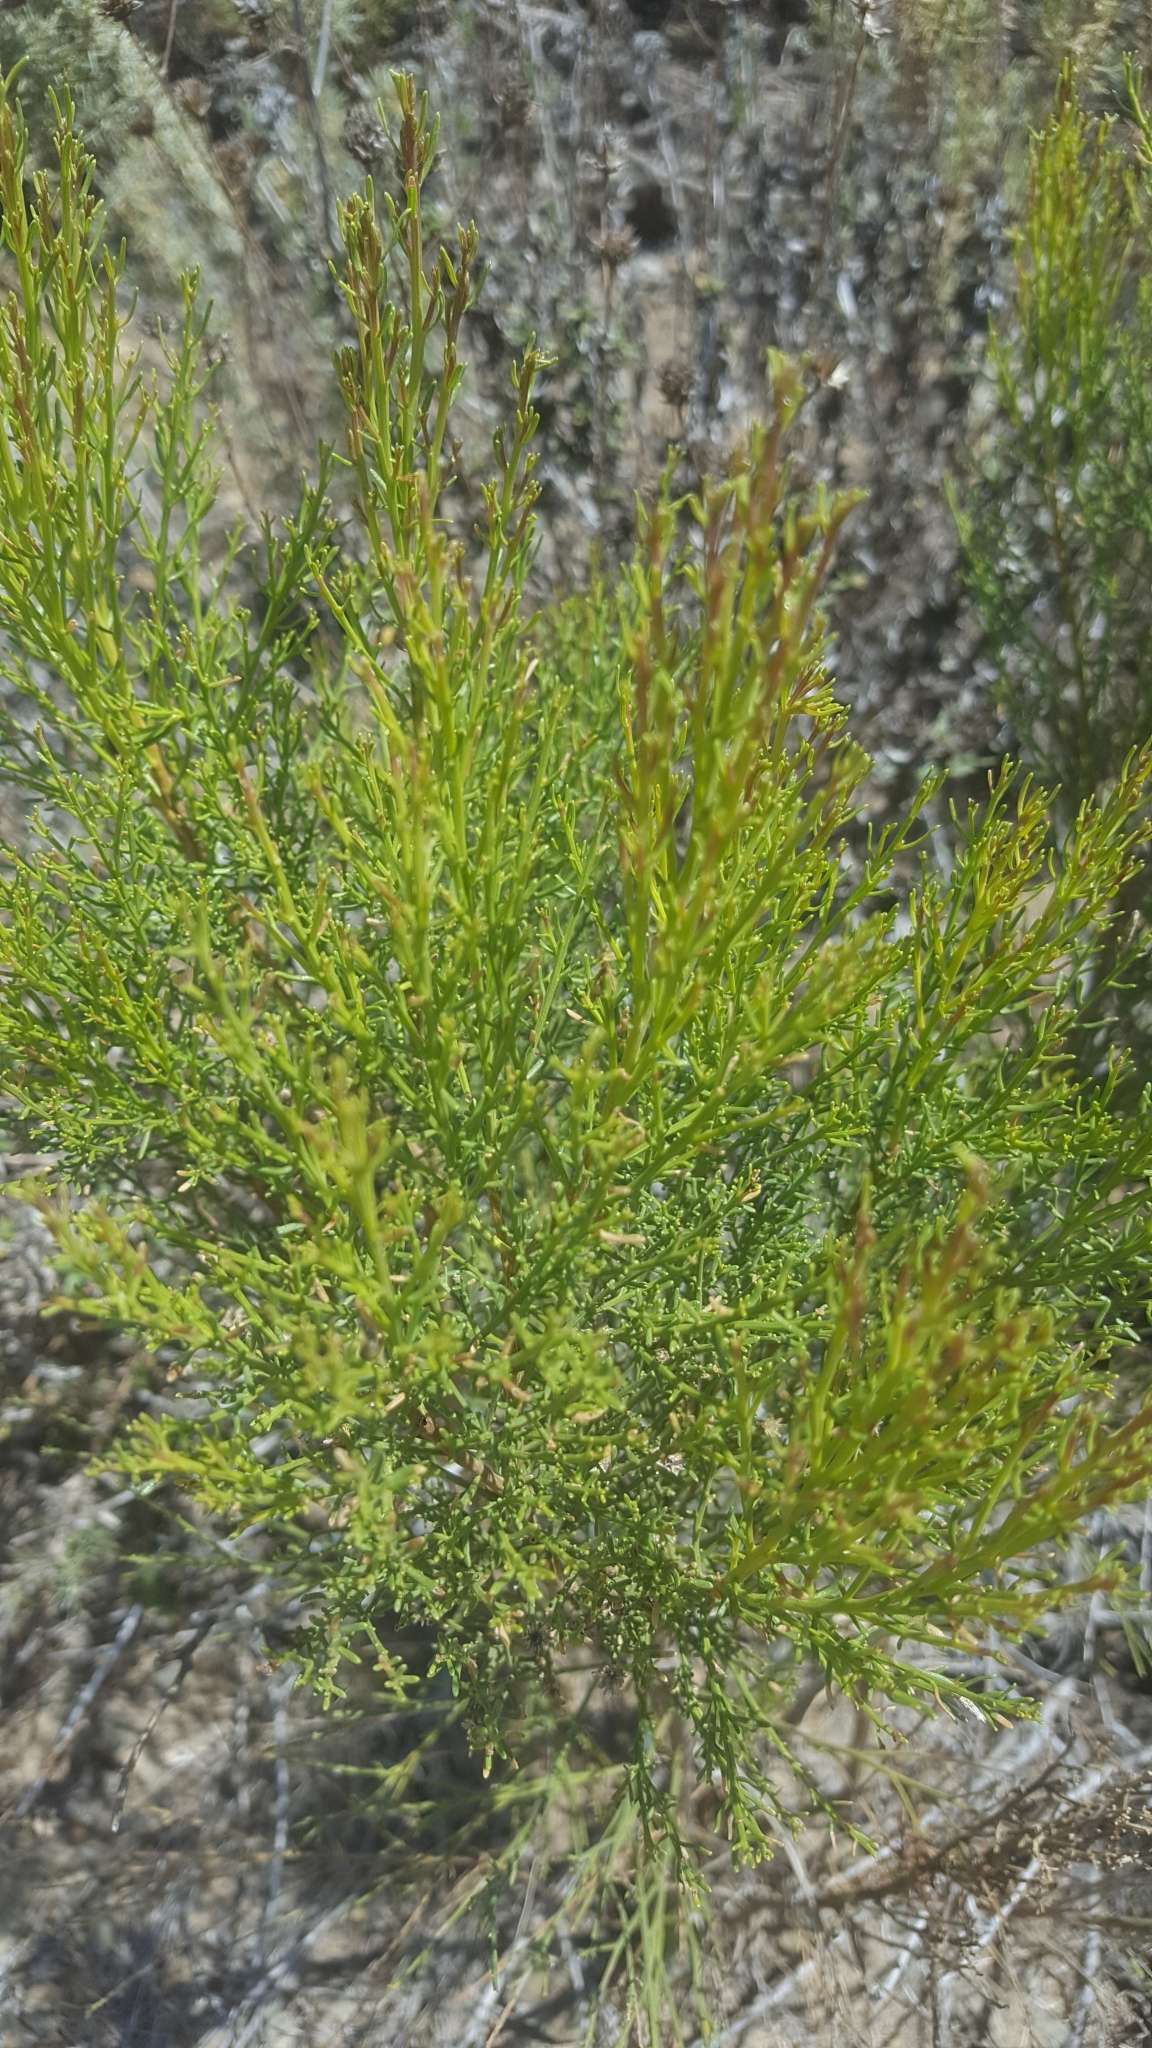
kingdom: Plantae
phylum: Tracheophyta
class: Magnoliopsida
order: Asterales
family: Asteraceae
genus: Baccharis
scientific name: Baccharis sarothroides
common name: Desert-broom
